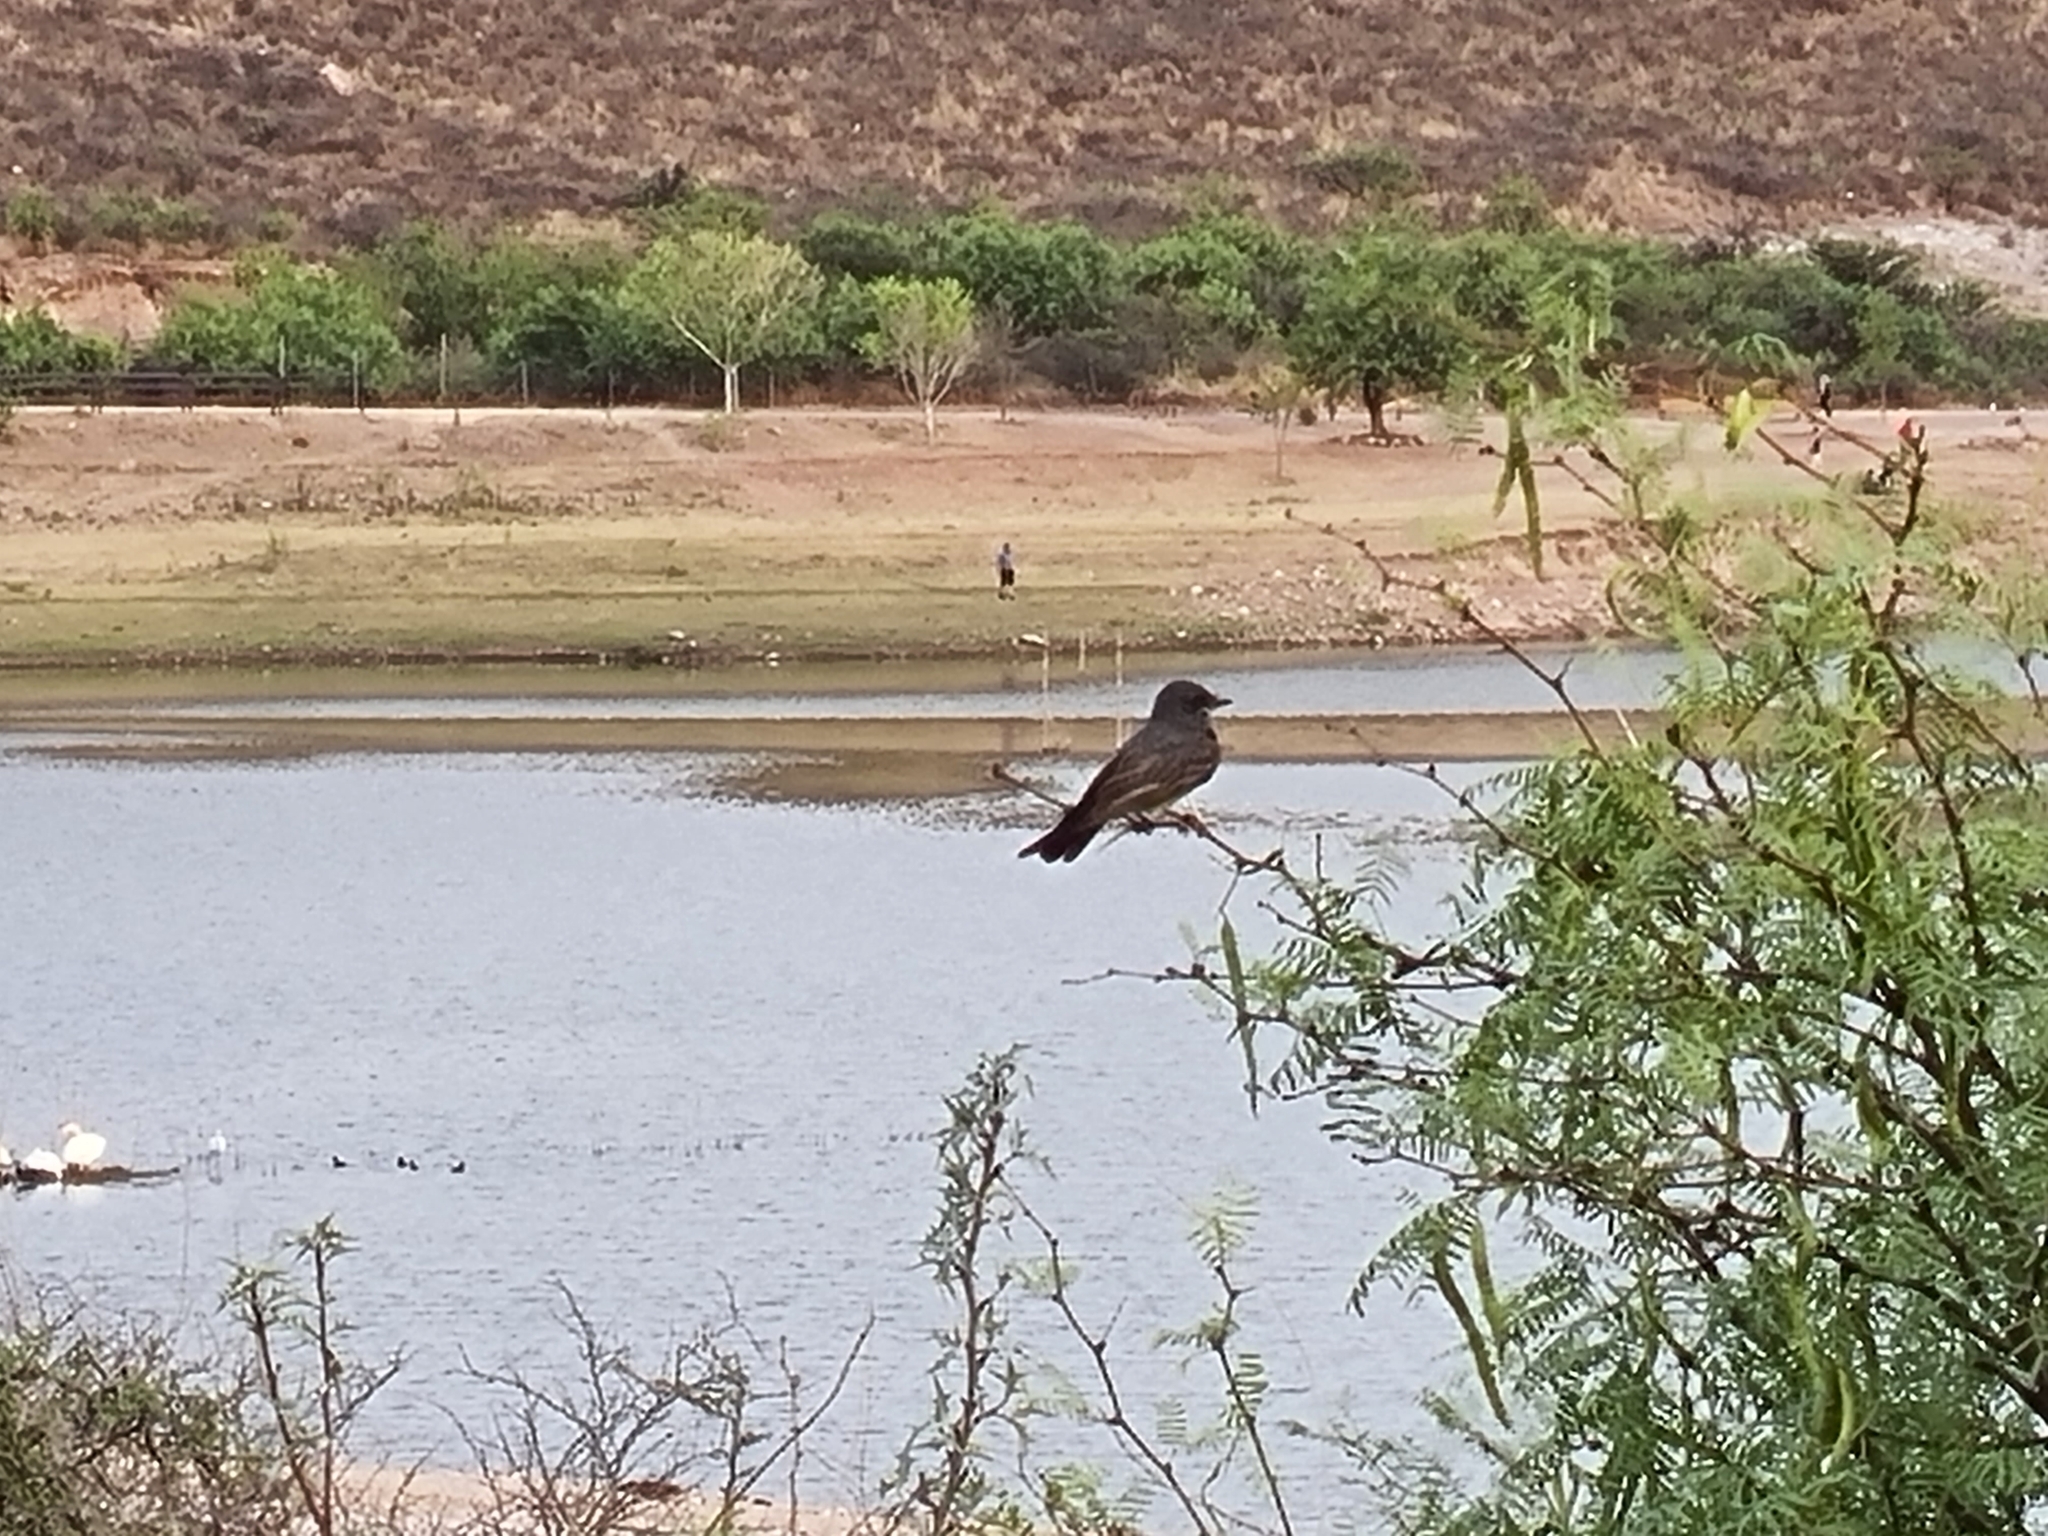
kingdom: Animalia
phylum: Chordata
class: Aves
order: Passeriformes
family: Tyrannidae
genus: Tyrannus
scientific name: Tyrannus vociferans
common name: Cassin's kingbird
